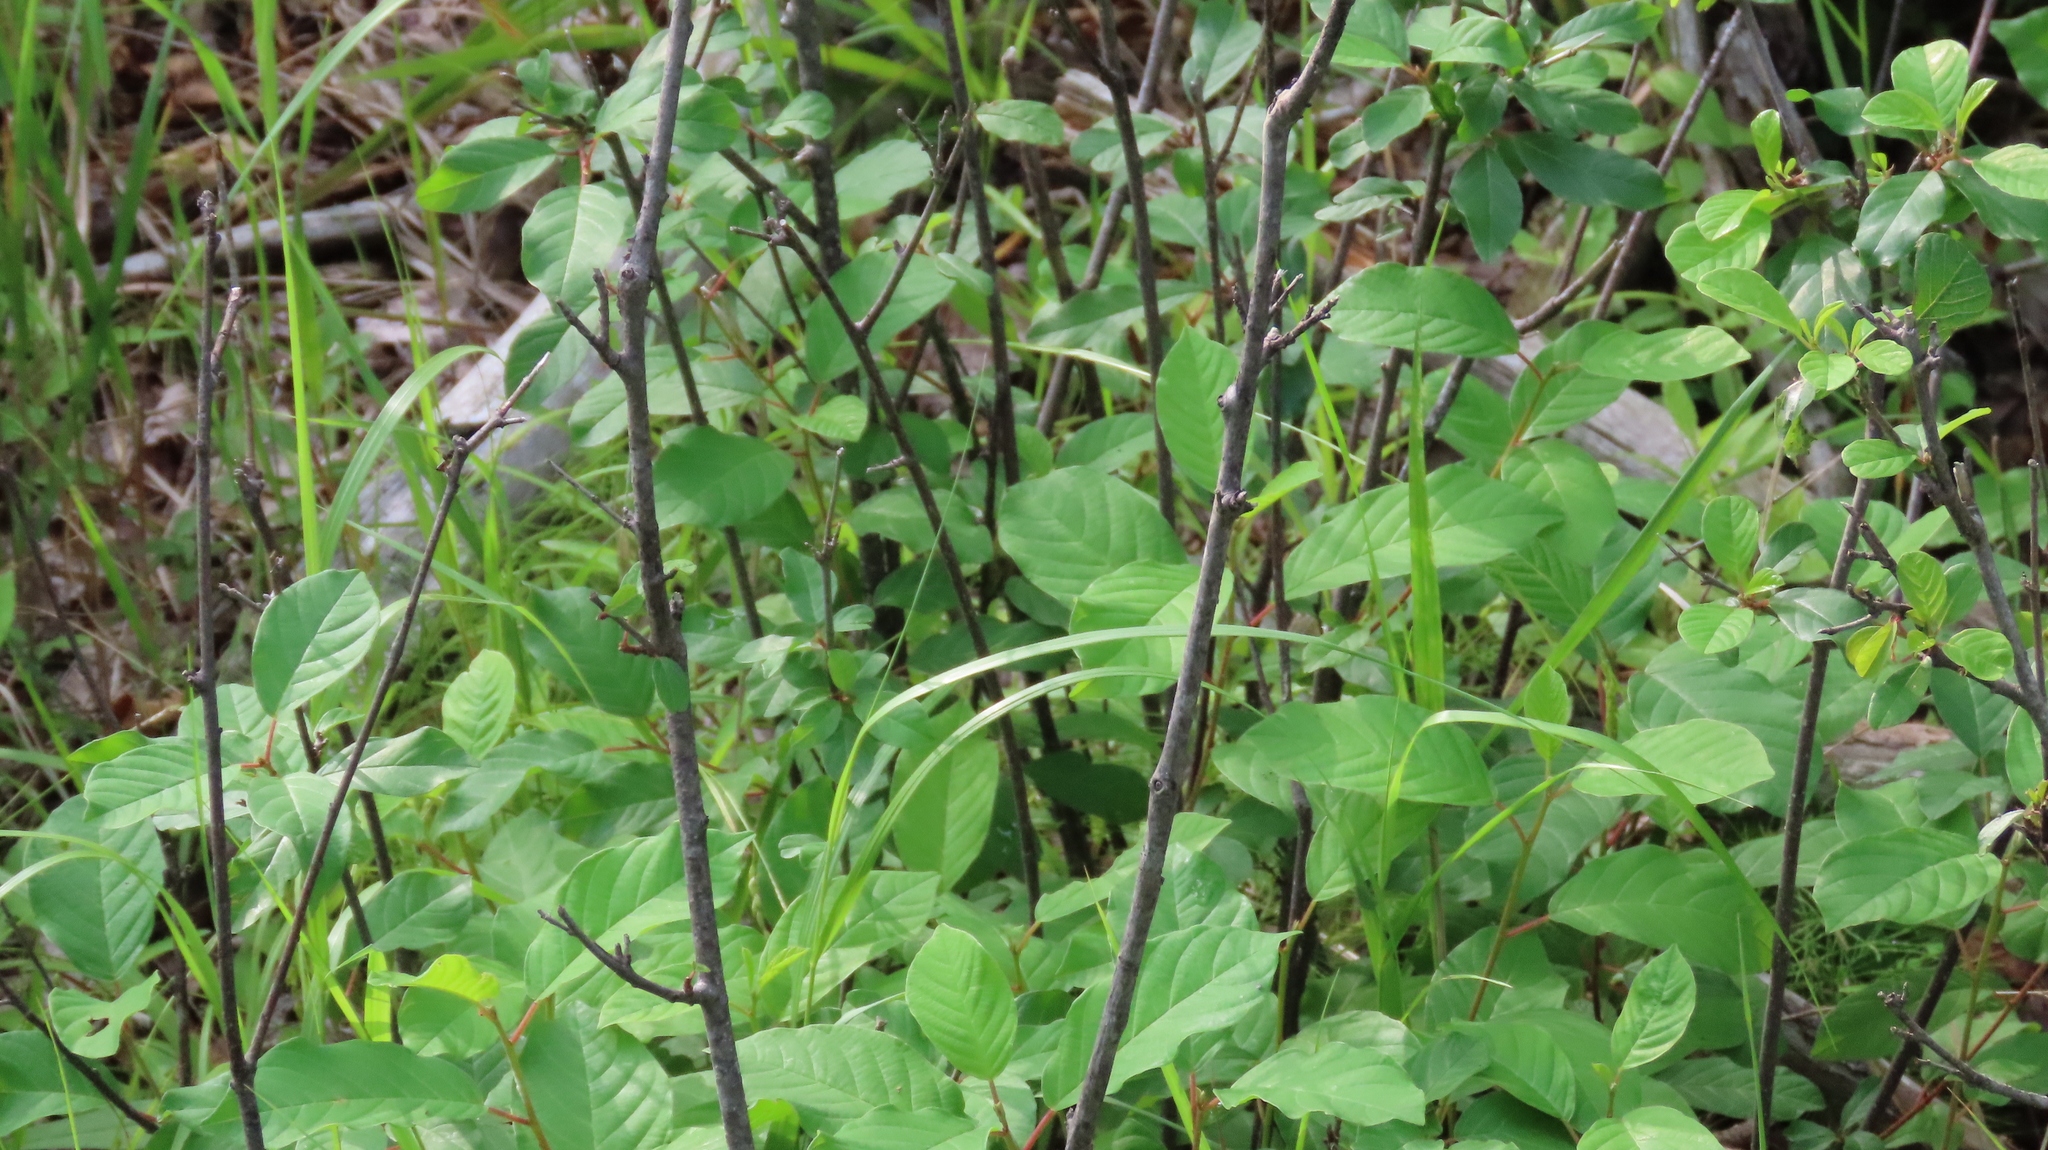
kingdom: Plantae
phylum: Tracheophyta
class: Magnoliopsida
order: Rosales
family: Rhamnaceae
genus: Frangula
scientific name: Frangula alnus
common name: Alder buckthorn
